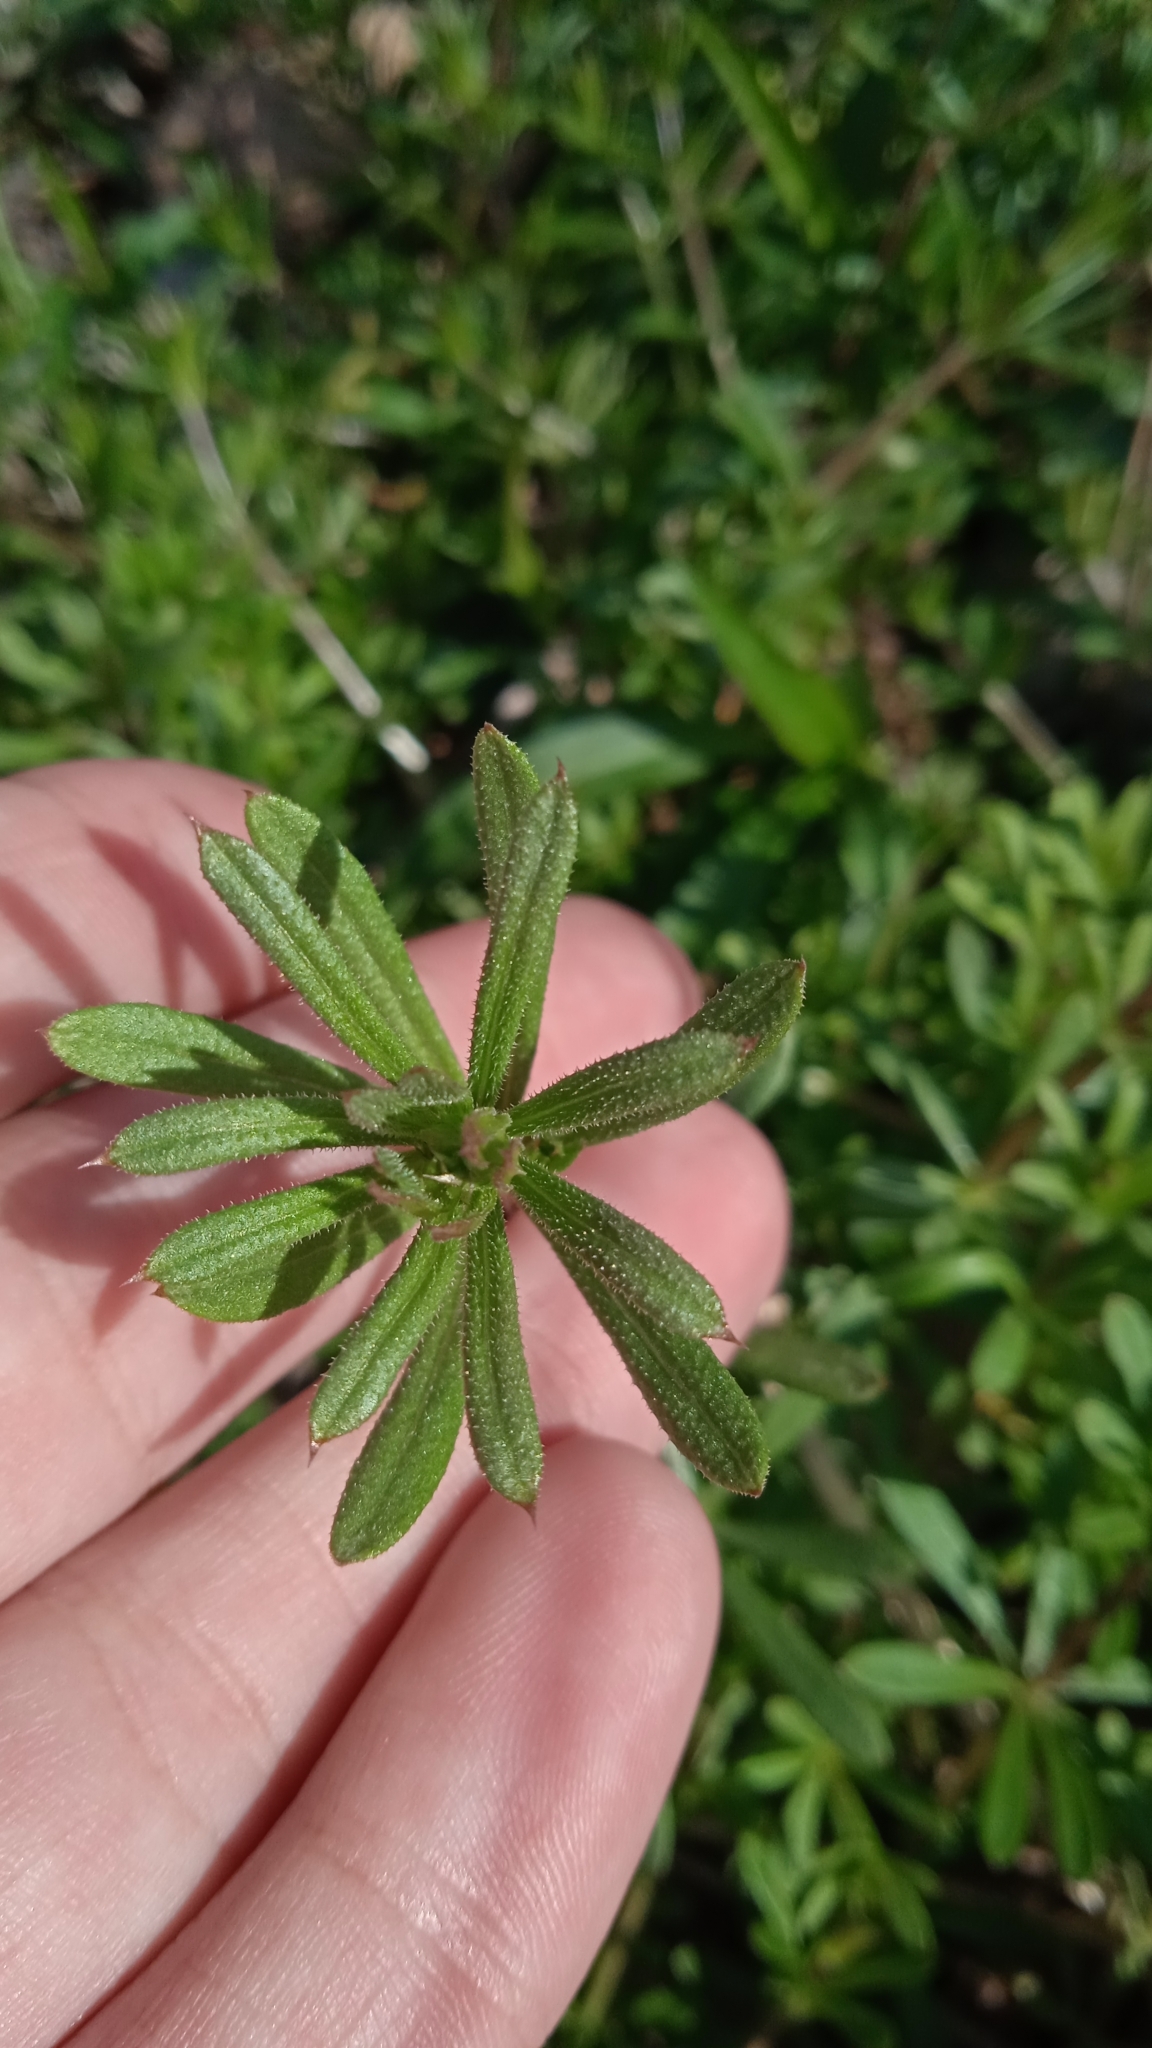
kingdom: Plantae
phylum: Tracheophyta
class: Magnoliopsida
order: Gentianales
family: Rubiaceae
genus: Galium
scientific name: Galium aparine
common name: Cleavers
